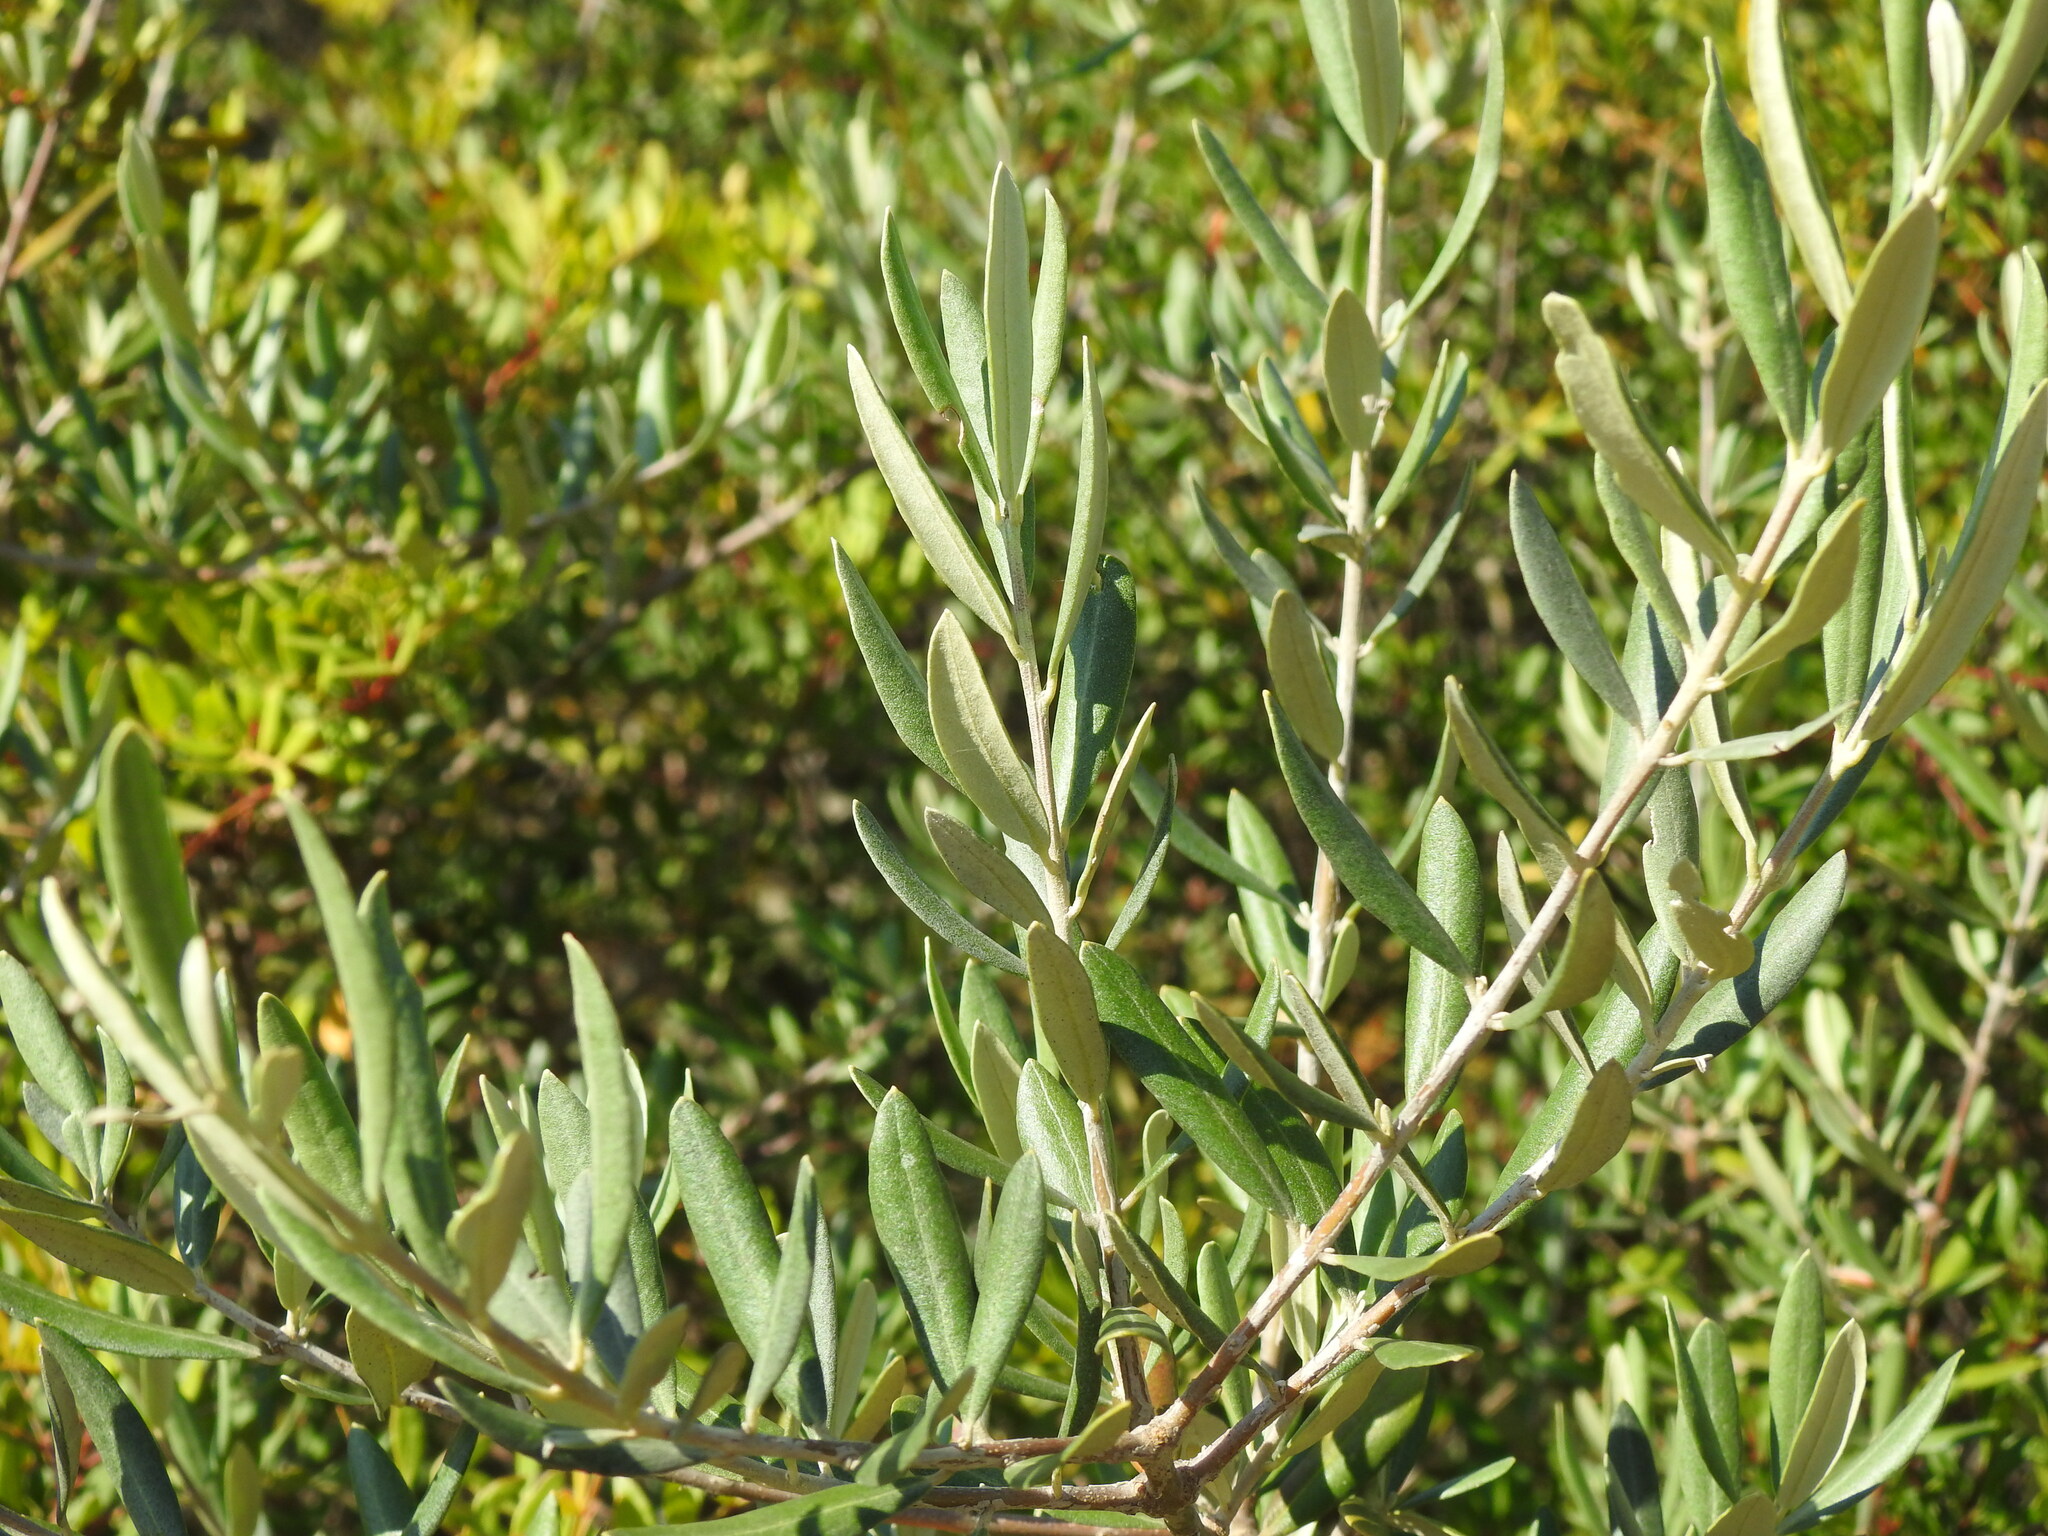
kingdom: Plantae
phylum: Tracheophyta
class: Magnoliopsida
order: Lamiales
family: Oleaceae
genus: Olea
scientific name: Olea europaea
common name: Olive
